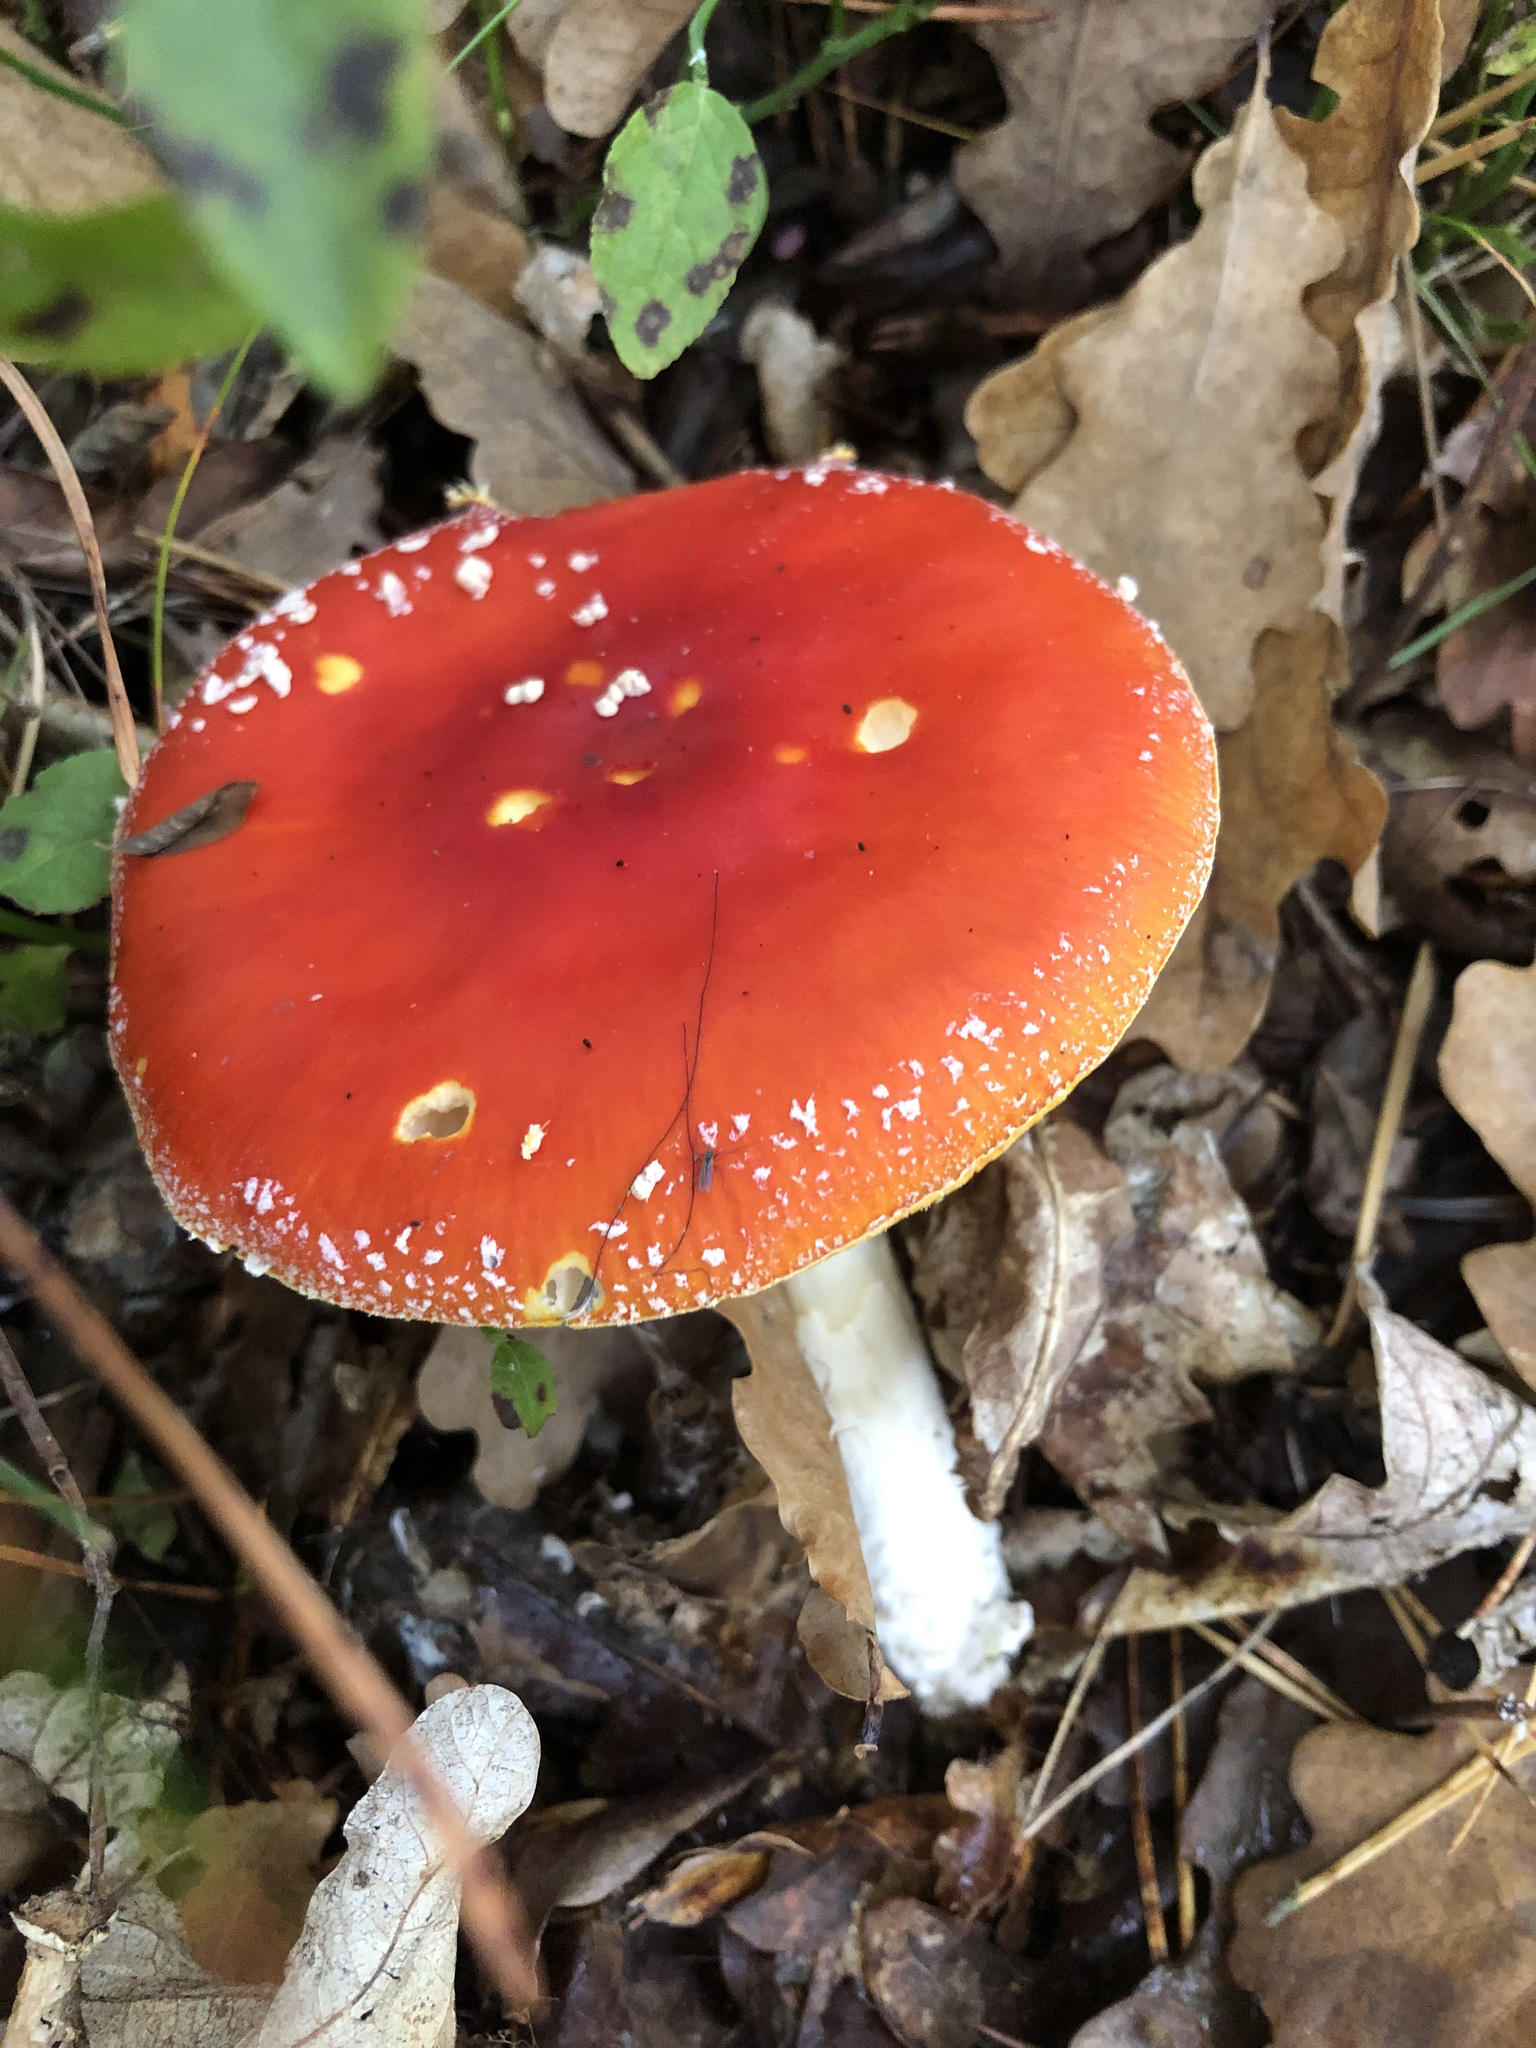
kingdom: Fungi
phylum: Basidiomycota
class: Agaricomycetes
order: Agaricales
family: Amanitaceae
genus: Amanita
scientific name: Amanita muscaria
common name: Fly agaric
